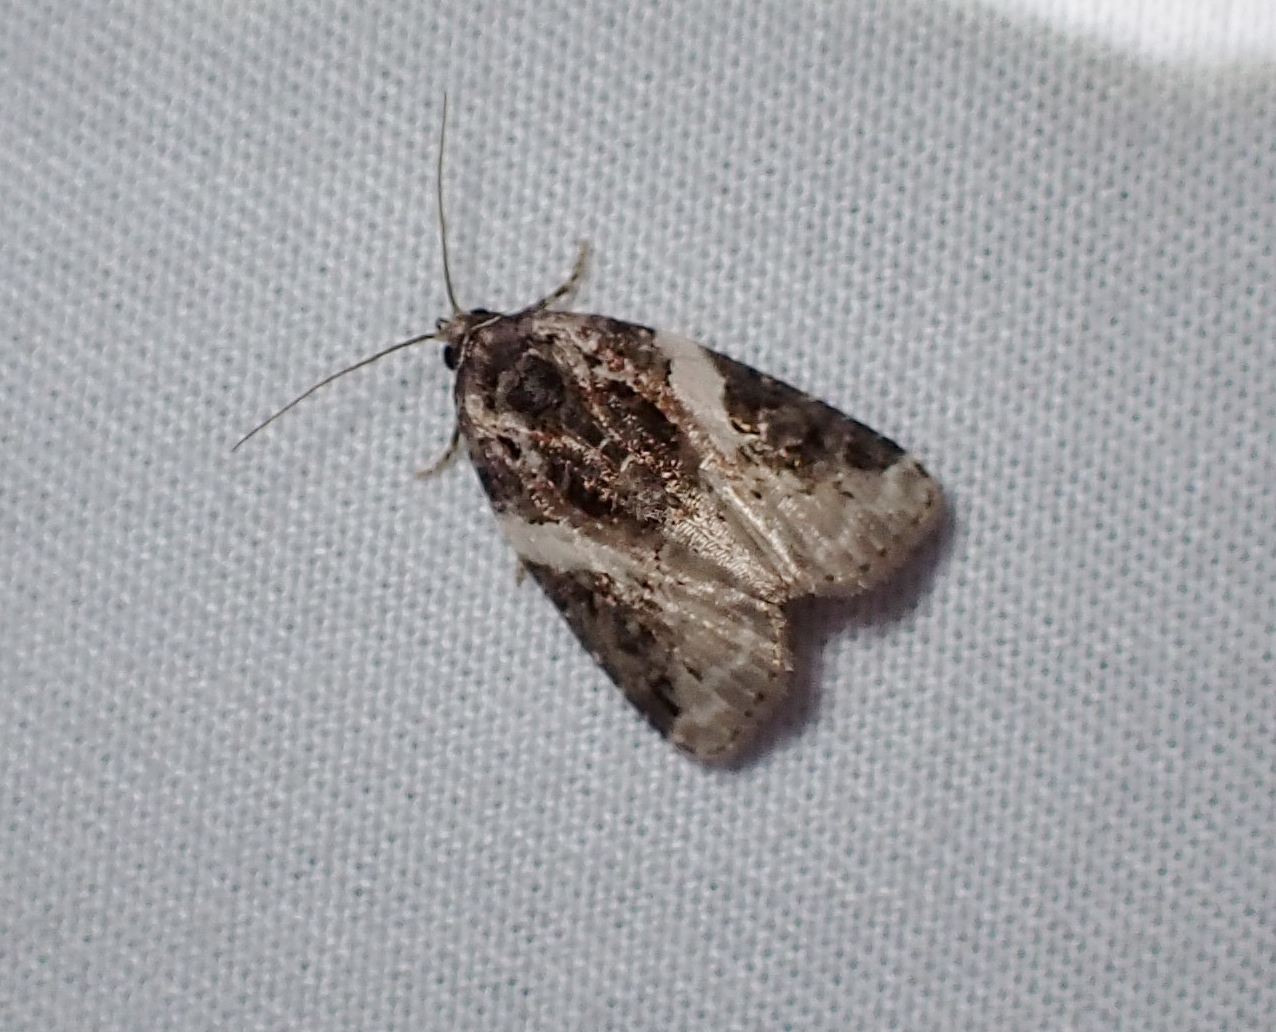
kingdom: Animalia
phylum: Arthropoda
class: Insecta
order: Lepidoptera
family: Noctuidae
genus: Pseudeustrotia
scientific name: Pseudeustrotia carneola
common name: Pink-barred lithacodia moth
